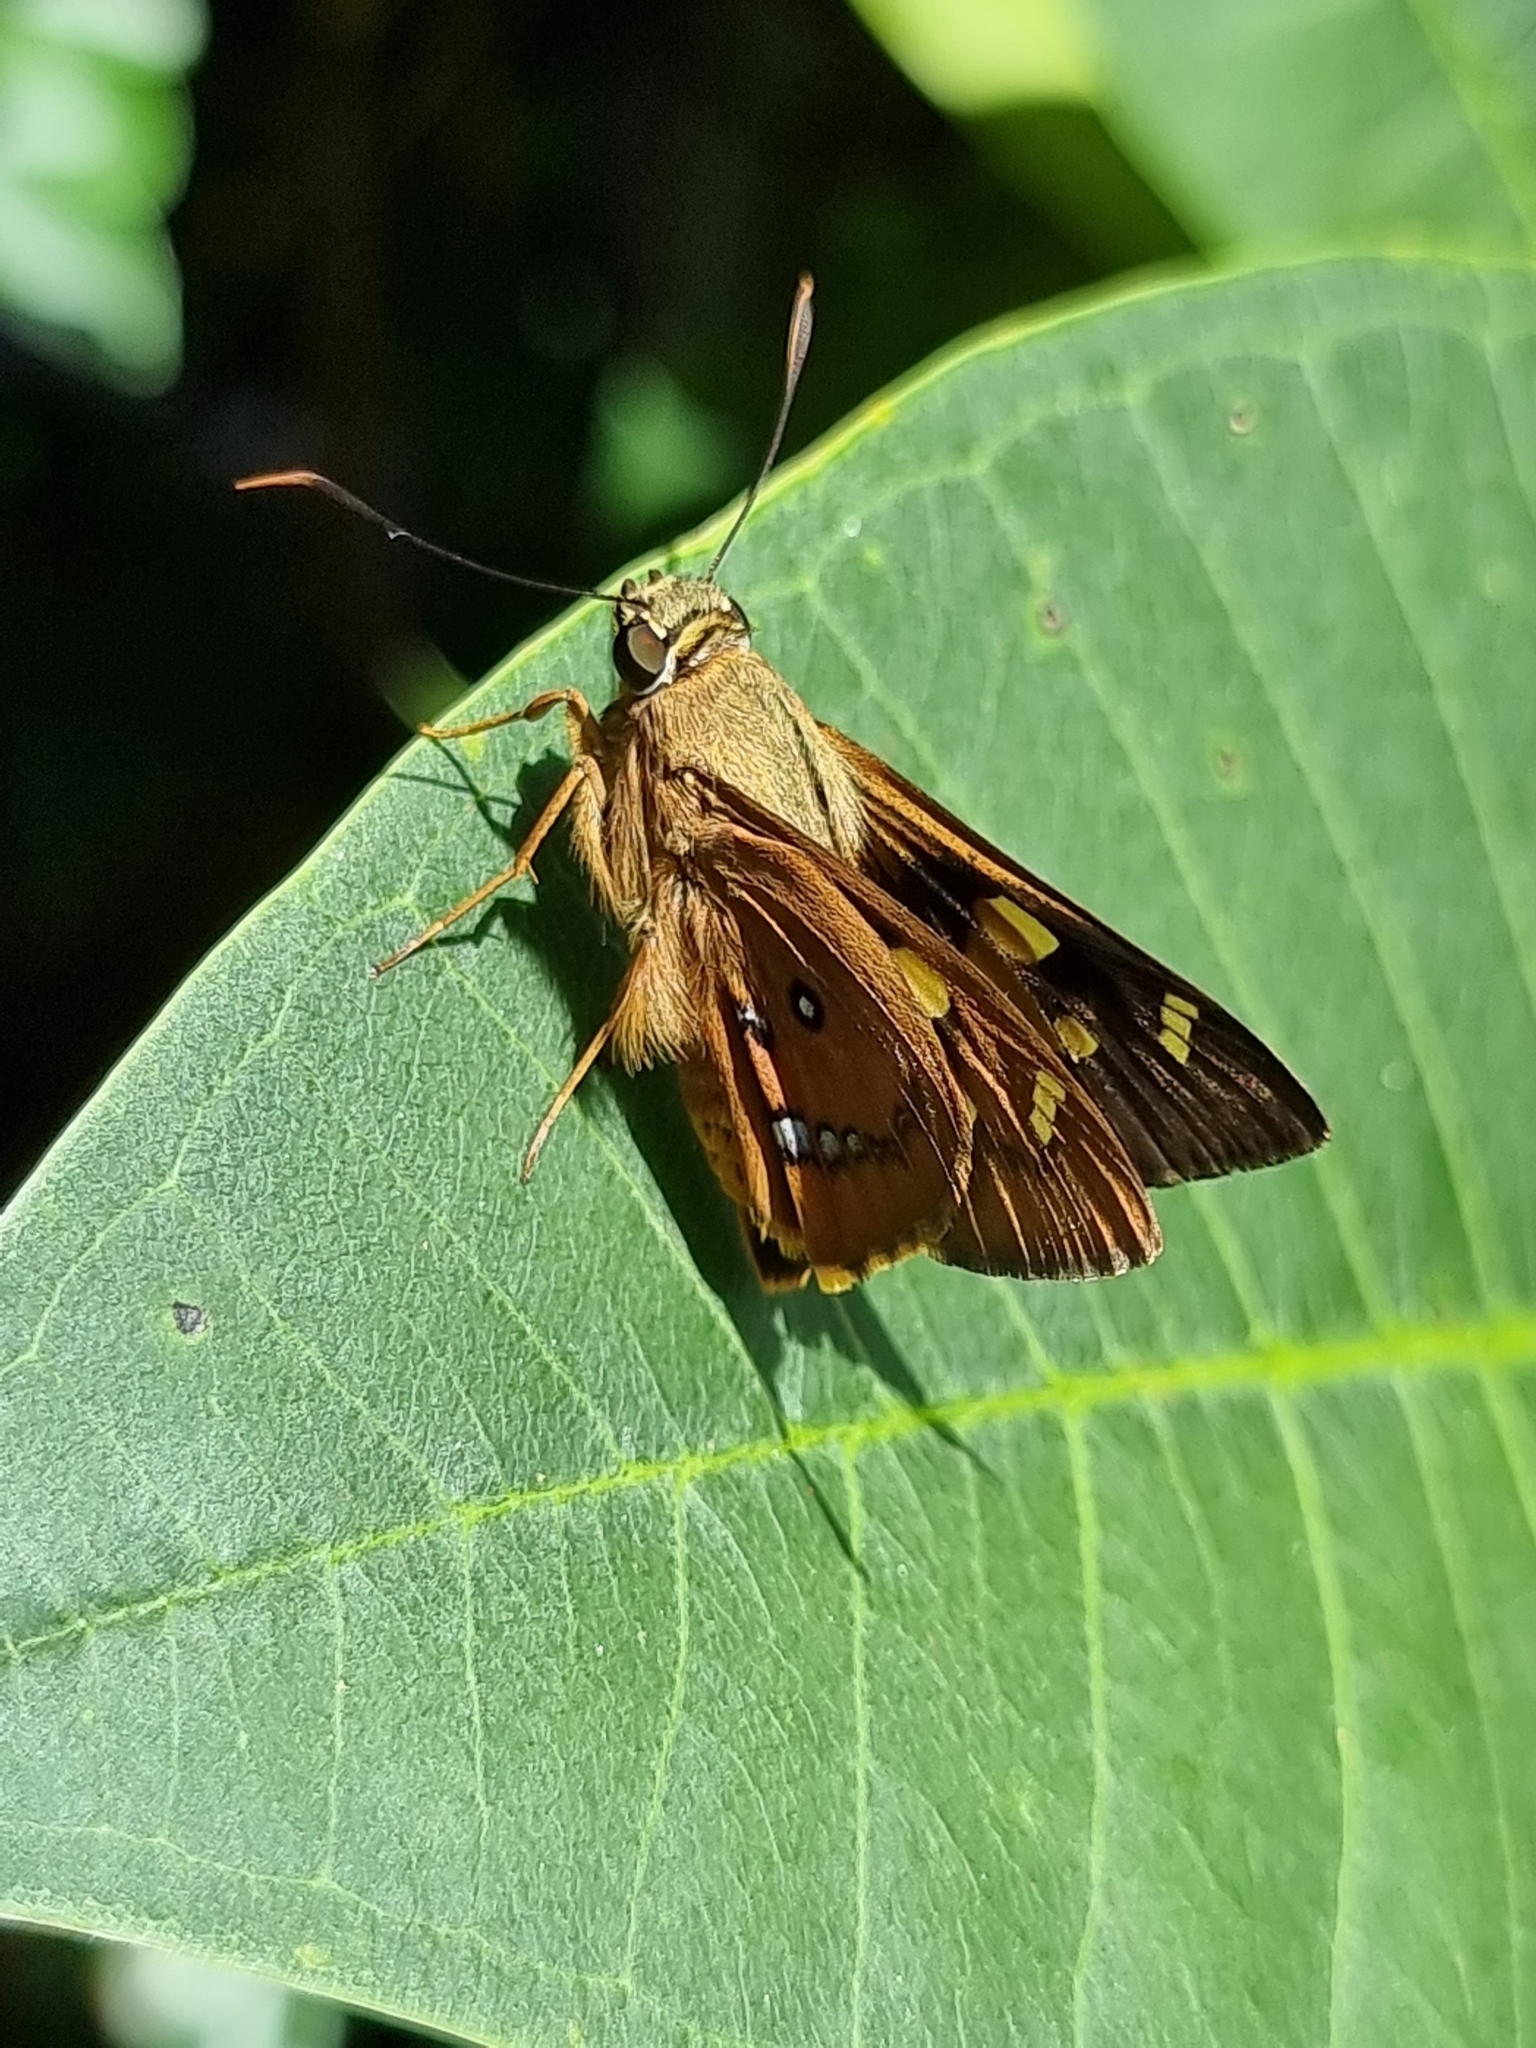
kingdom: Animalia
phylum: Arthropoda
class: Insecta
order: Lepidoptera
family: Hesperiidae
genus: Trapezites
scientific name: Trapezites symmomus
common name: Splendid ochre
